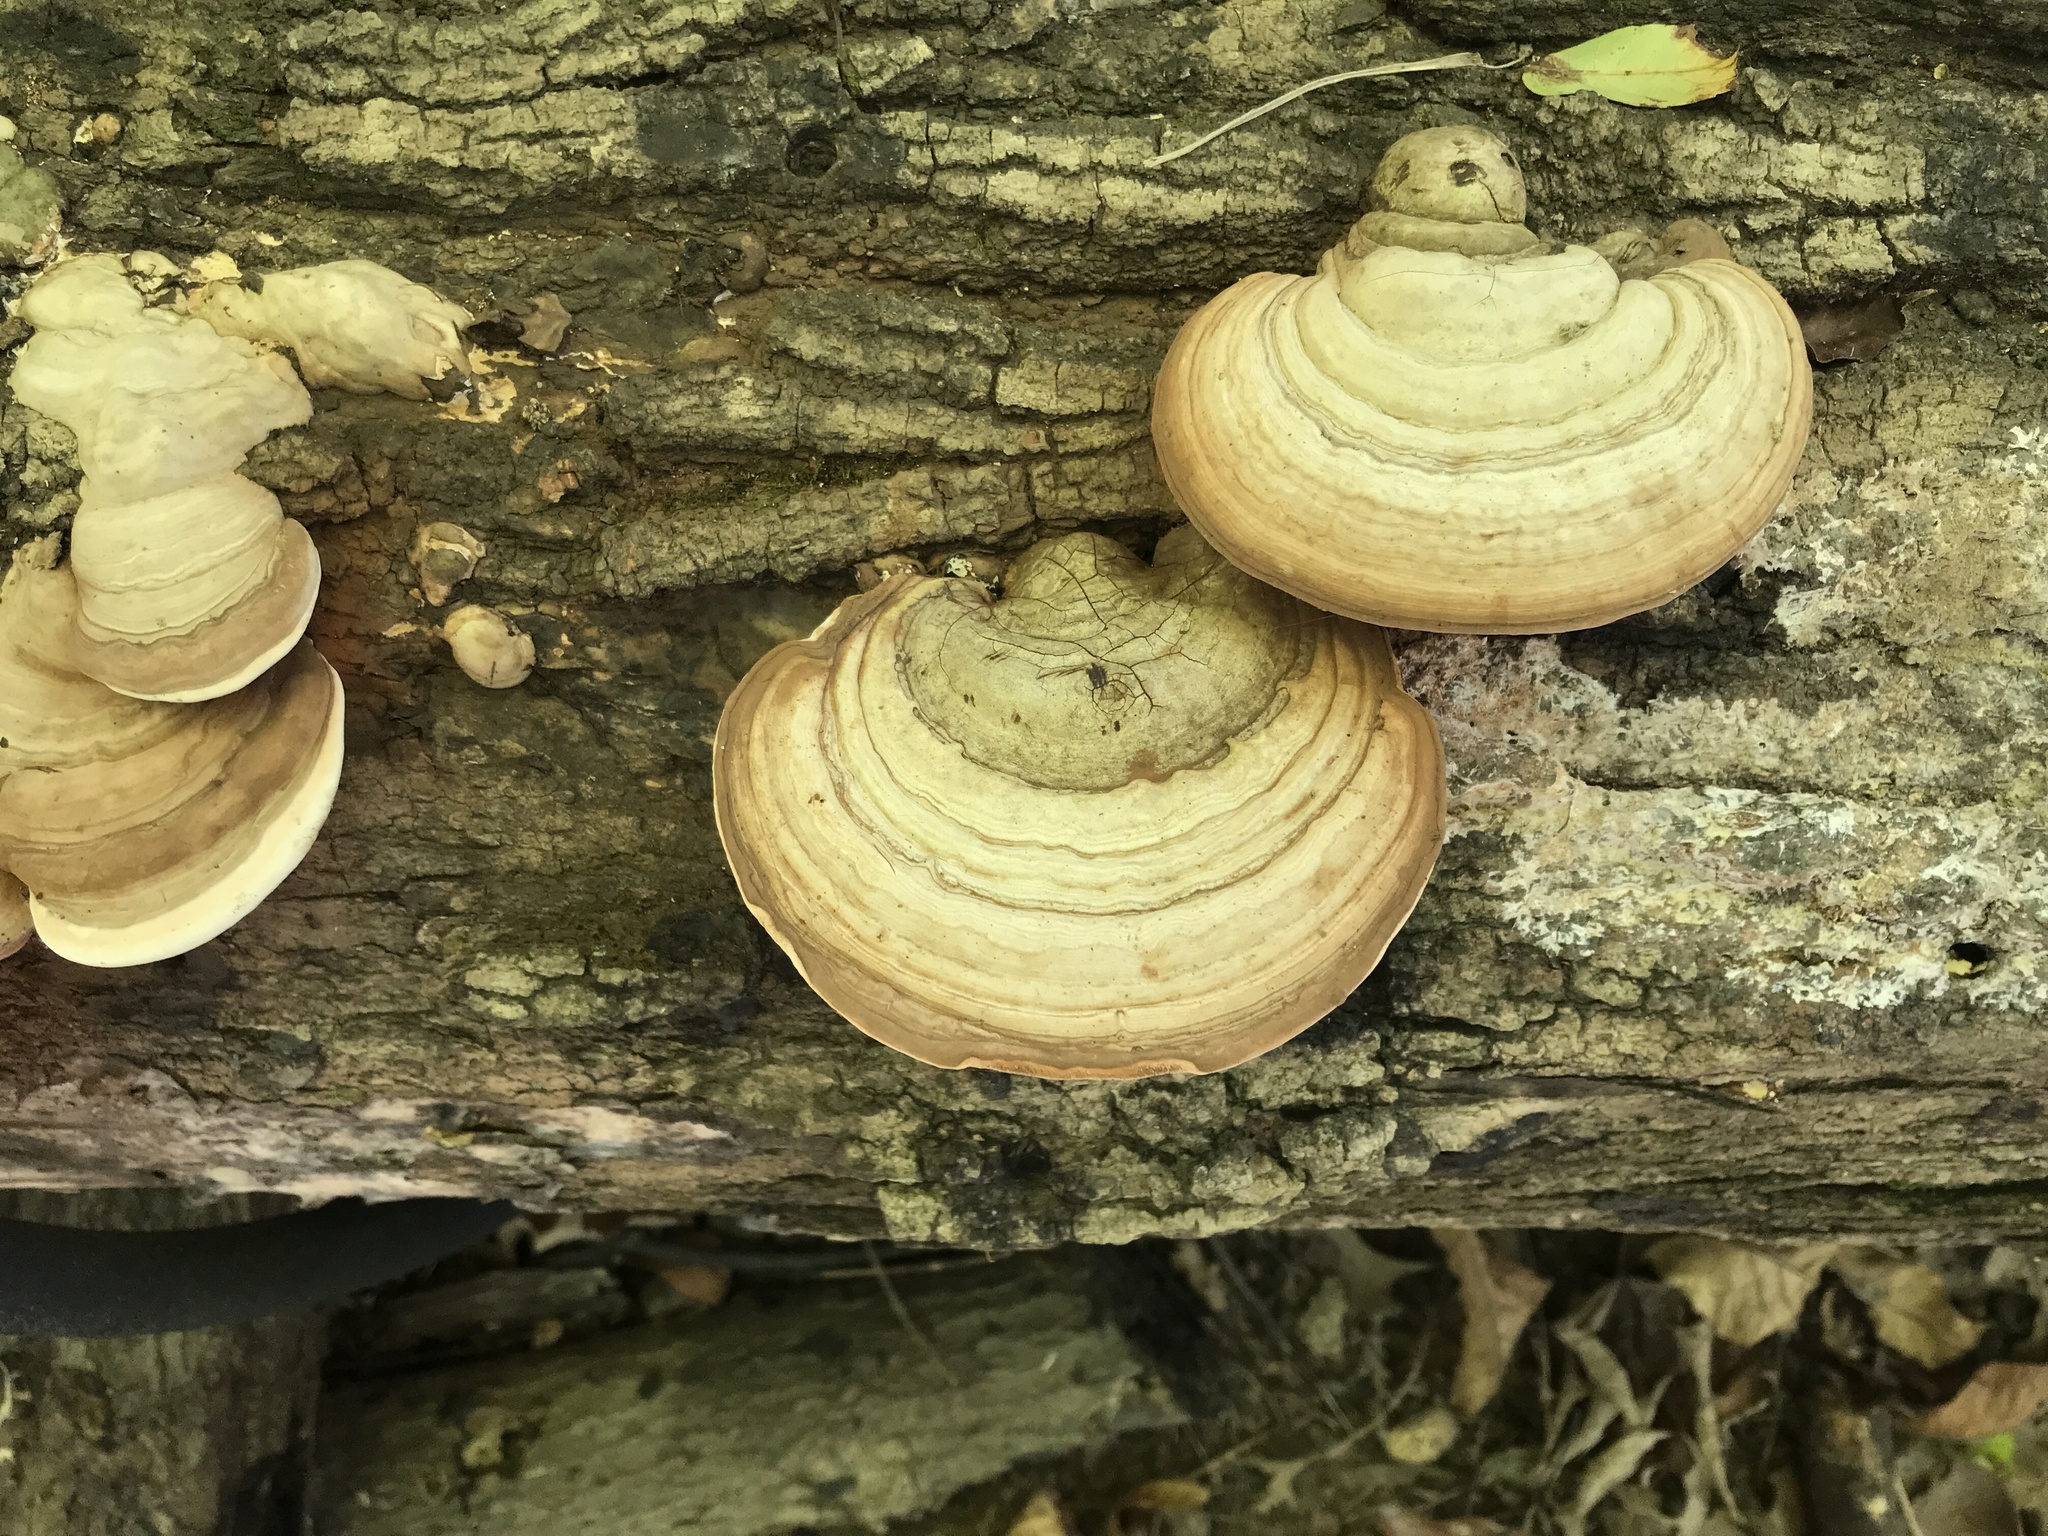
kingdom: Fungi
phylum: Basidiomycota
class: Agaricomycetes
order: Polyporales
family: Polyporaceae
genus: Ganoderma
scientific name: Ganoderma applanatum
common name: Artist's bracket
